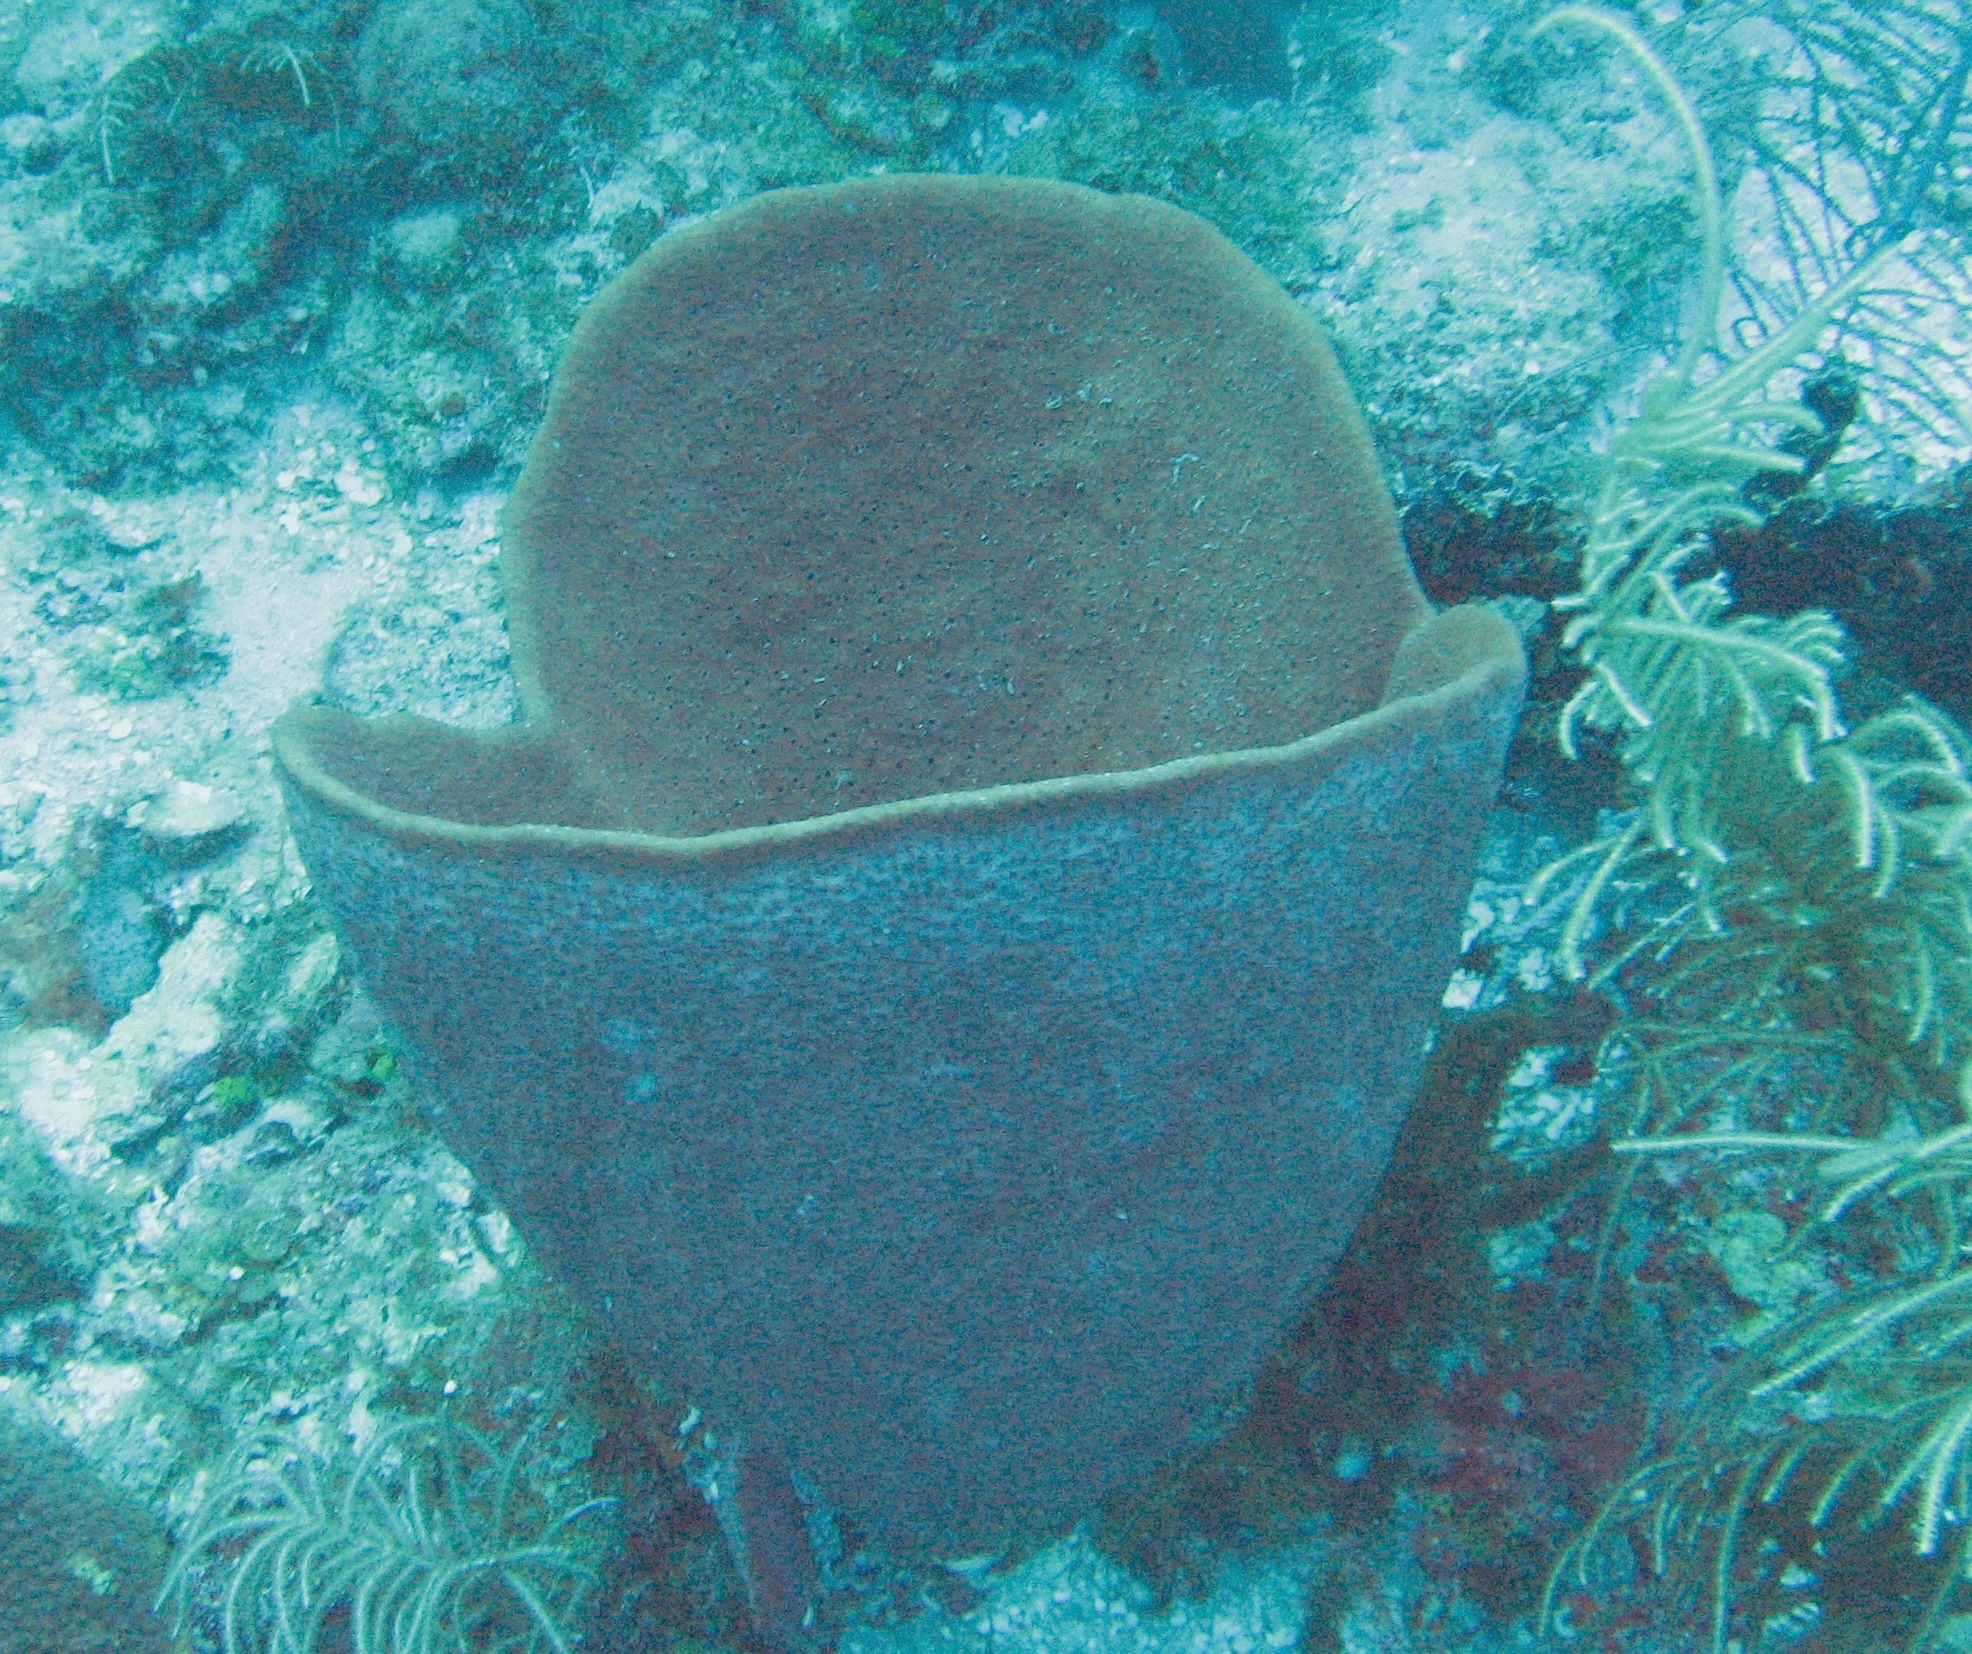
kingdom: Animalia
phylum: Porifera
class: Demospongiae
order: Dictyoceratida
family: Irciniidae
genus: Ircinia
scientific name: Ircinia campana
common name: Vase sponge
